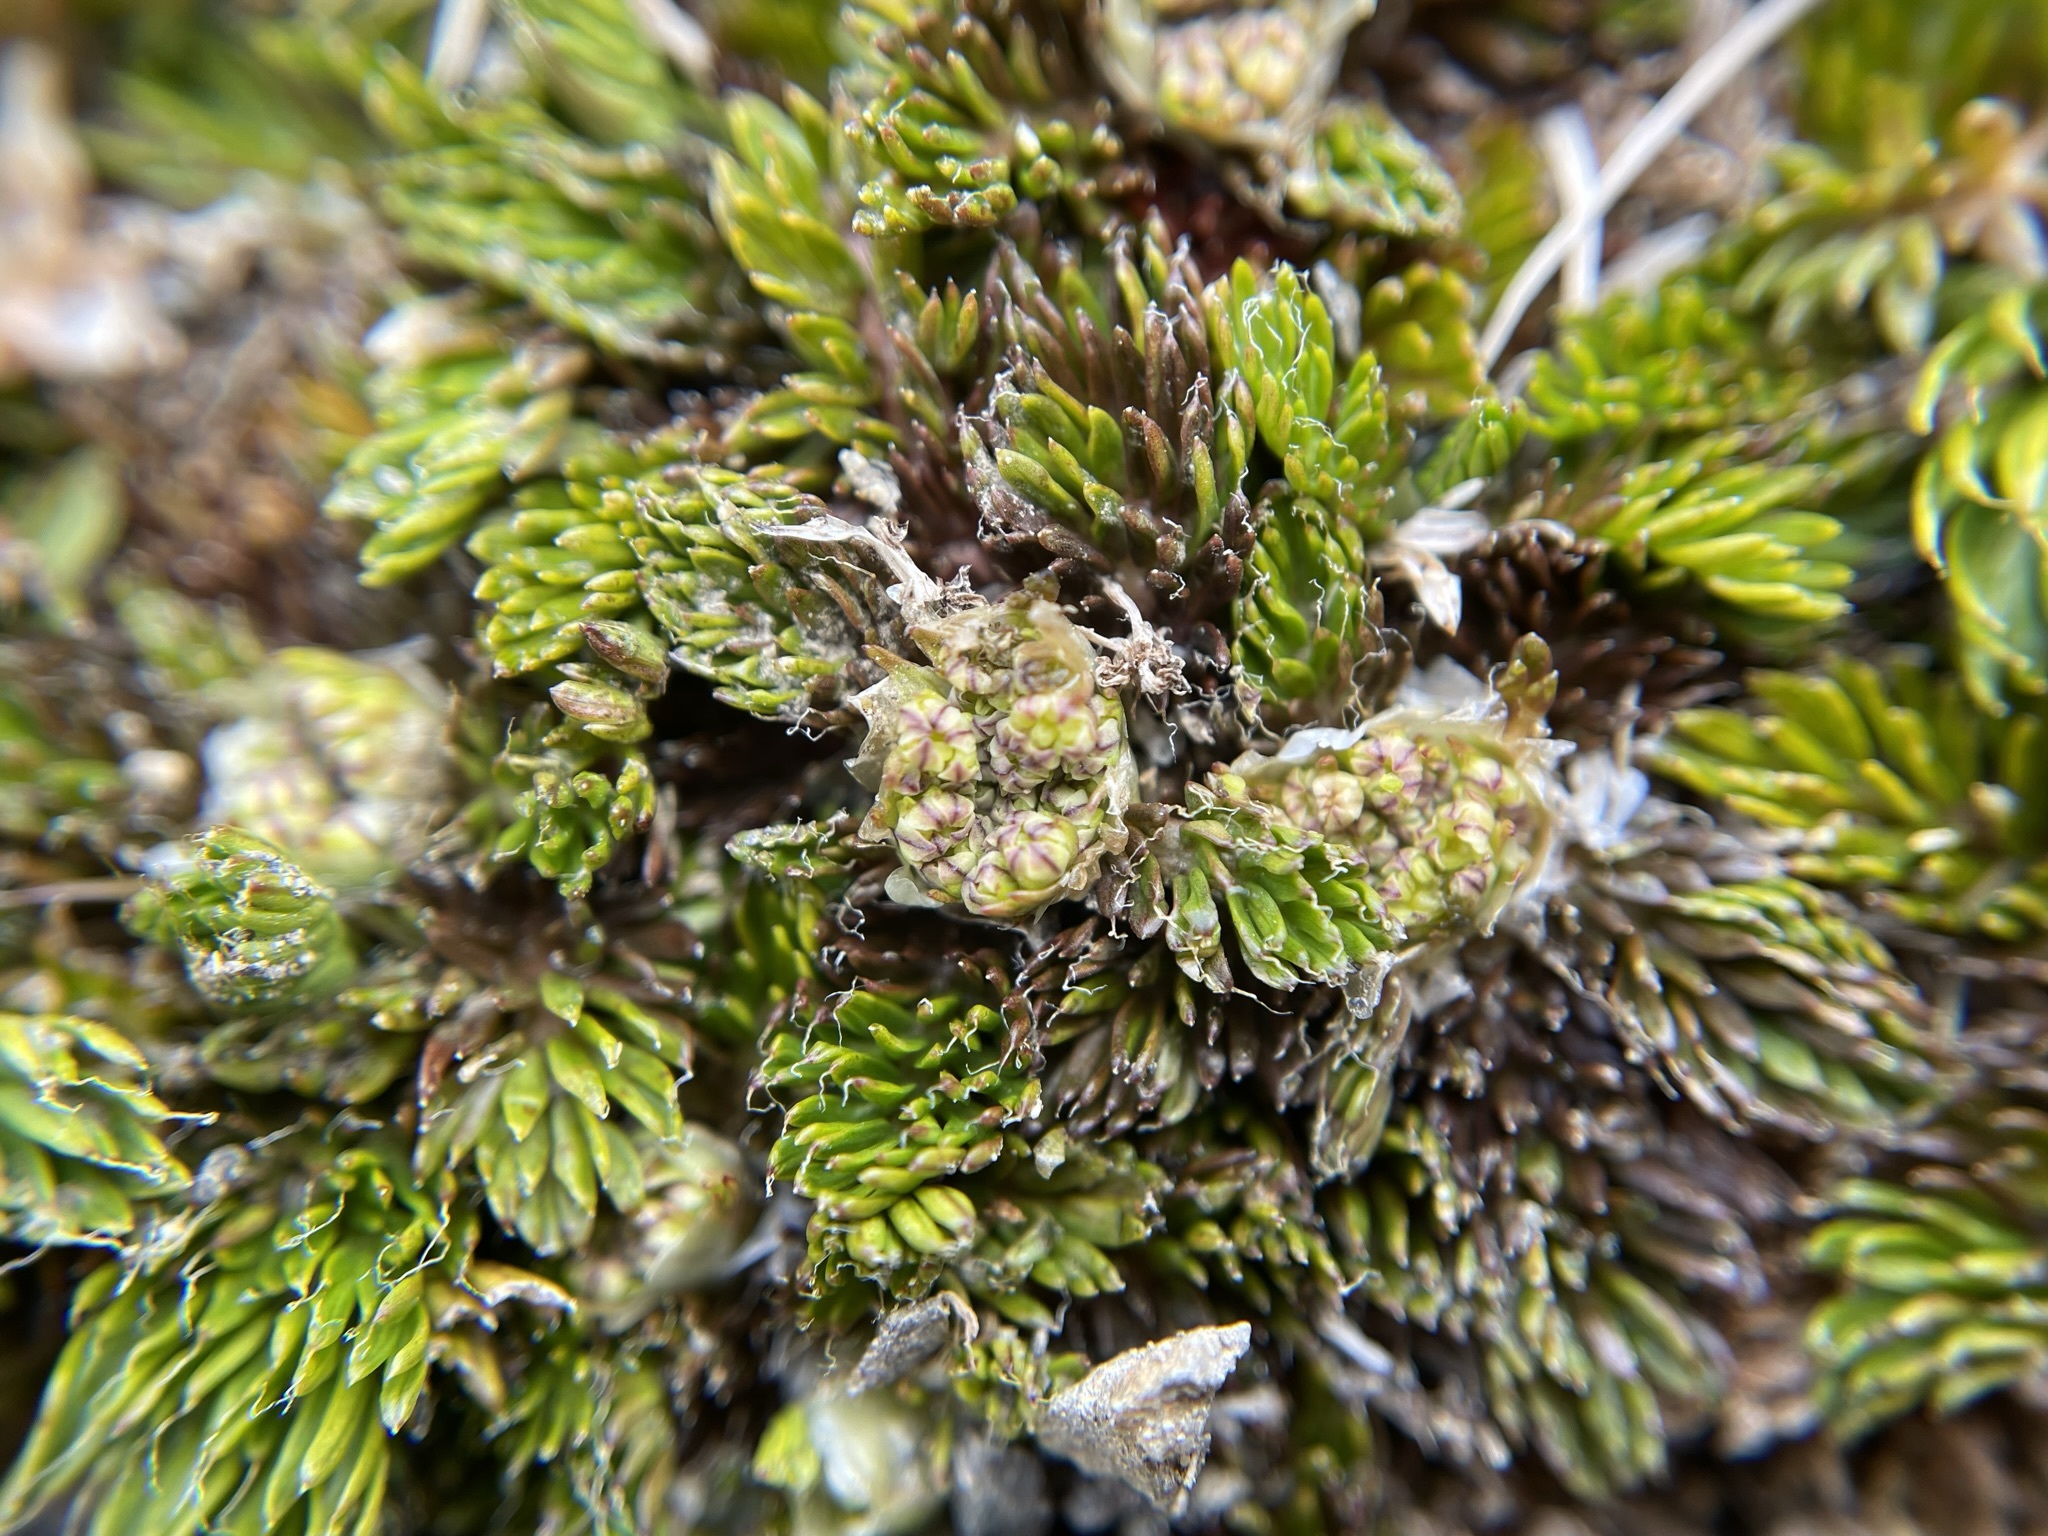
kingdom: Plantae
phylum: Tracheophyta
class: Magnoliopsida
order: Apiales
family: Apiaceae
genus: Anisotome
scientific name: Anisotome imbricata
